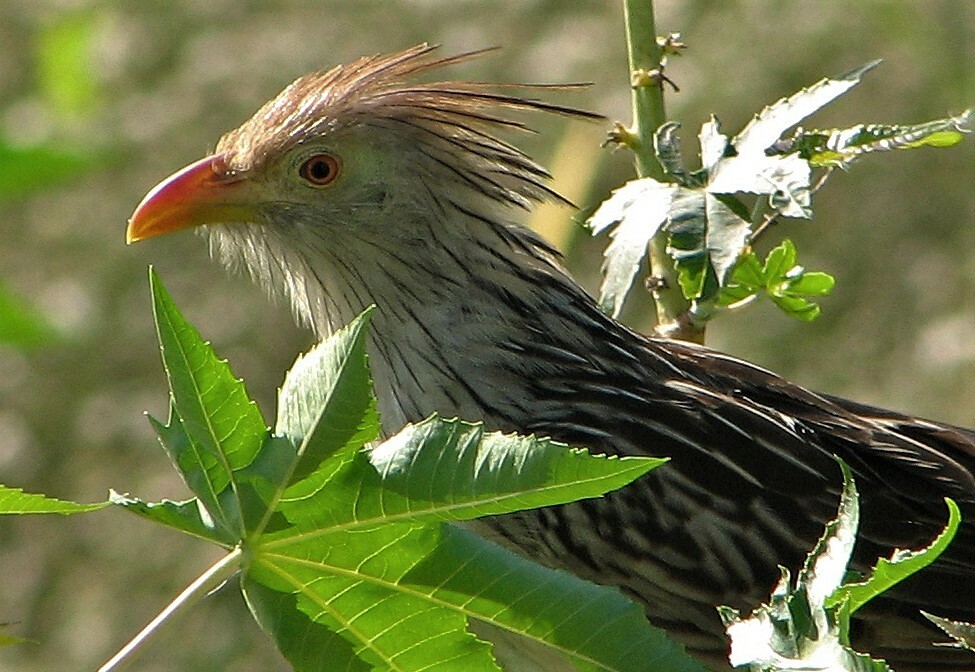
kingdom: Animalia
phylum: Chordata
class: Aves
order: Cuculiformes
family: Cuculidae
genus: Guira
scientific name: Guira guira
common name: Guira cuckoo
